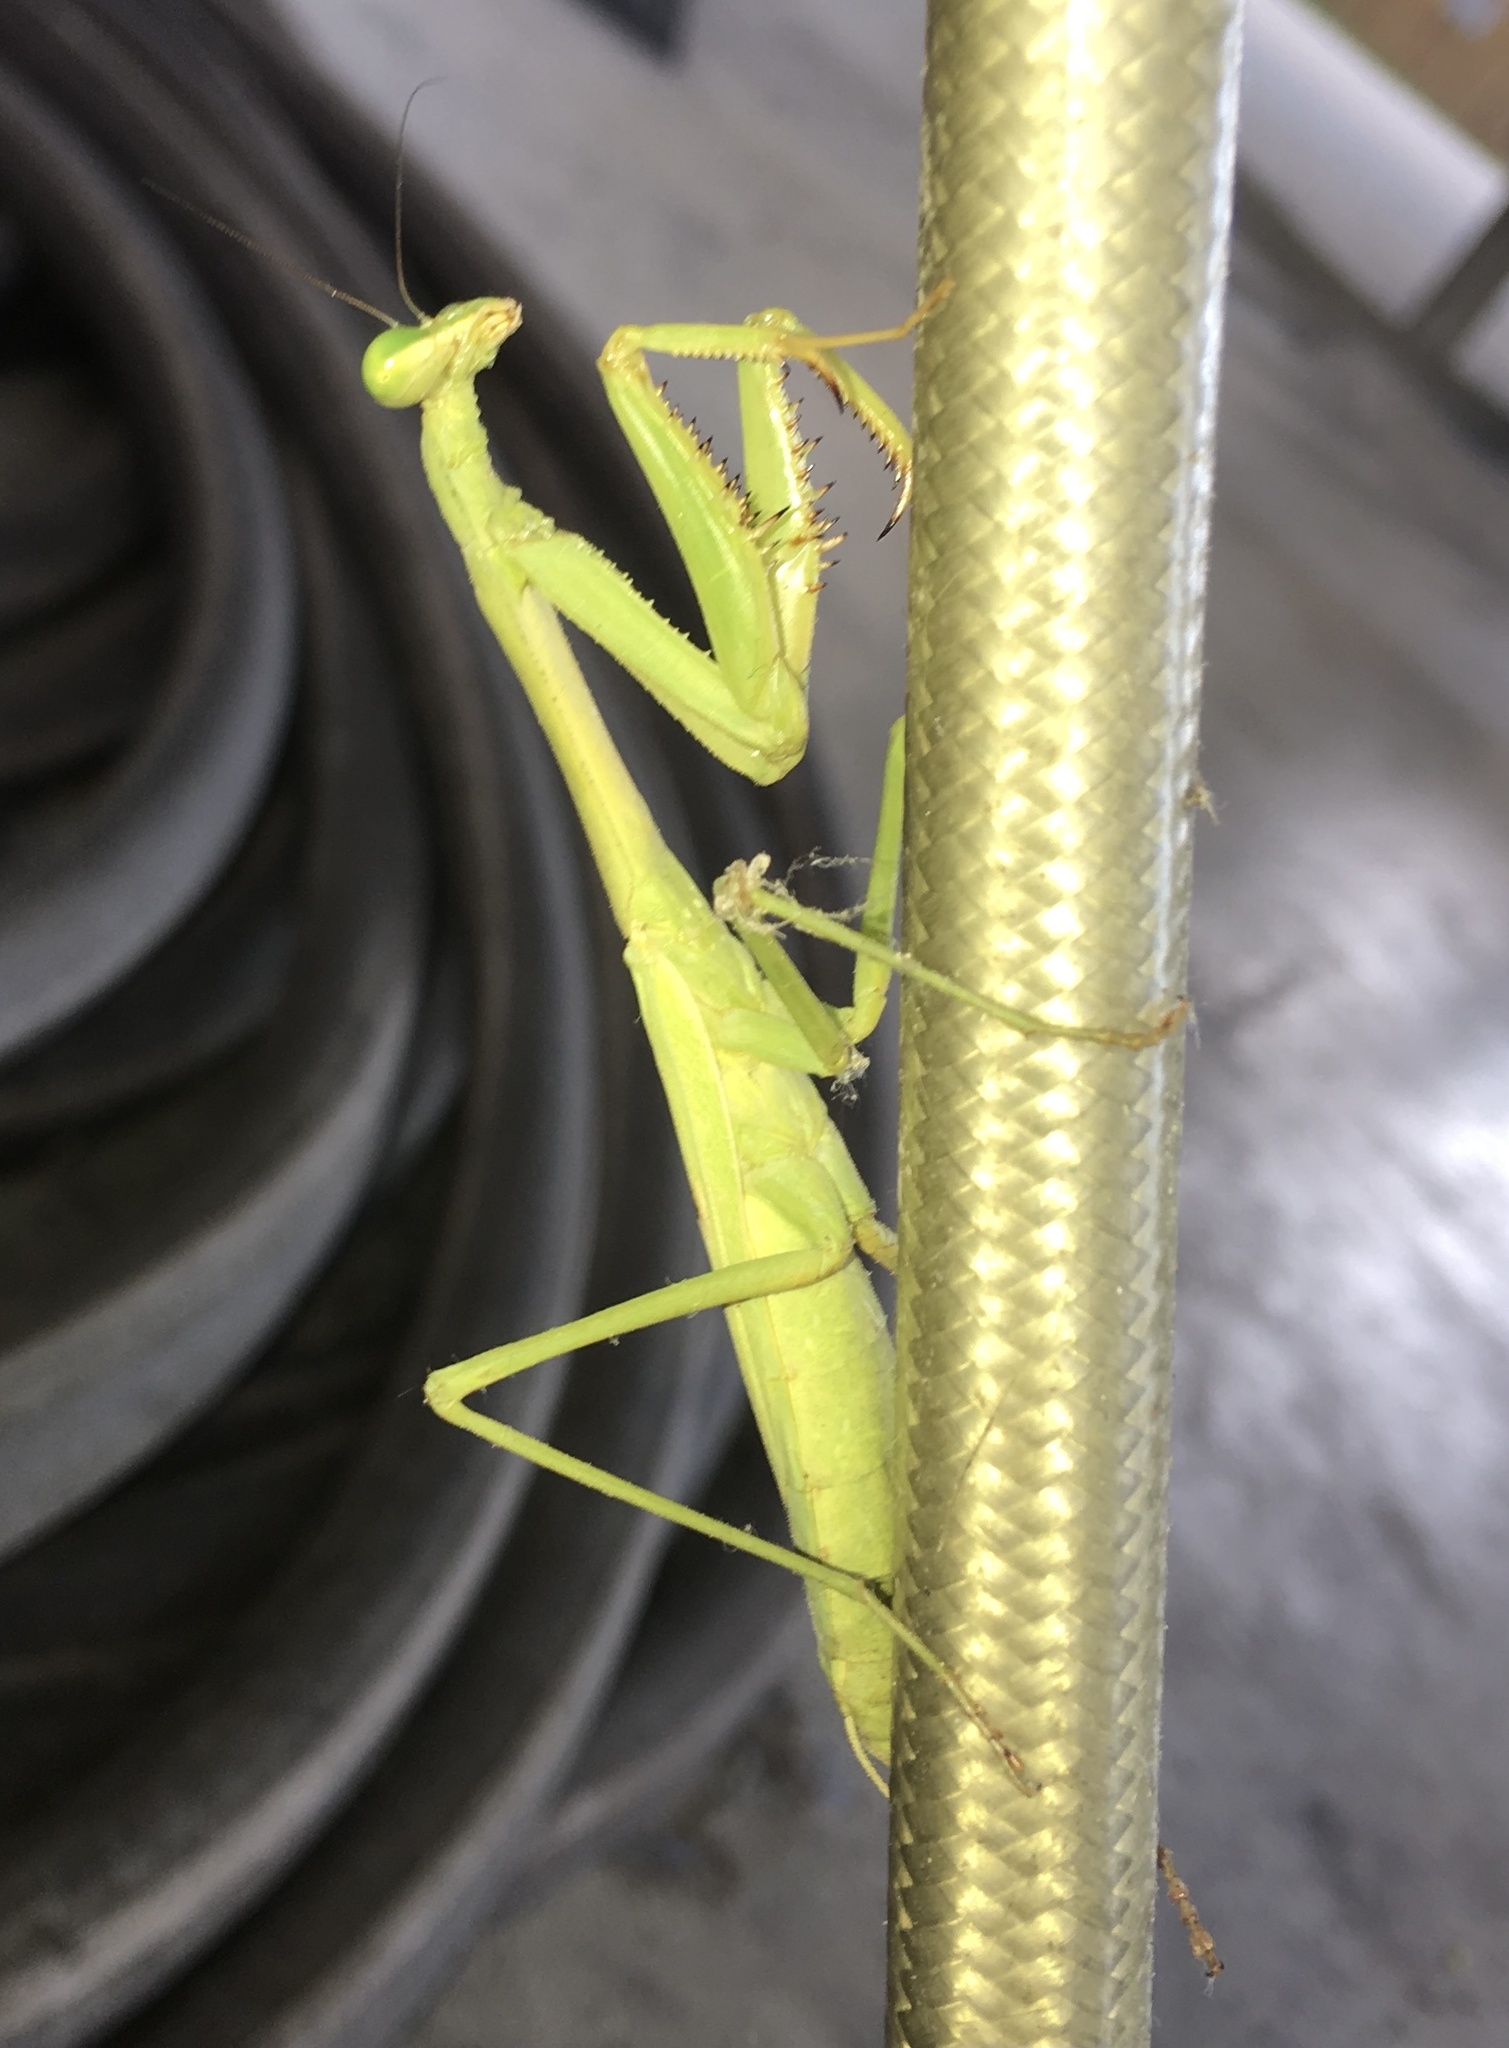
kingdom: Animalia
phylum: Arthropoda
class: Insecta
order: Mantodea
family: Mantidae
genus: Stagmomantis
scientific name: Stagmomantis carolina
